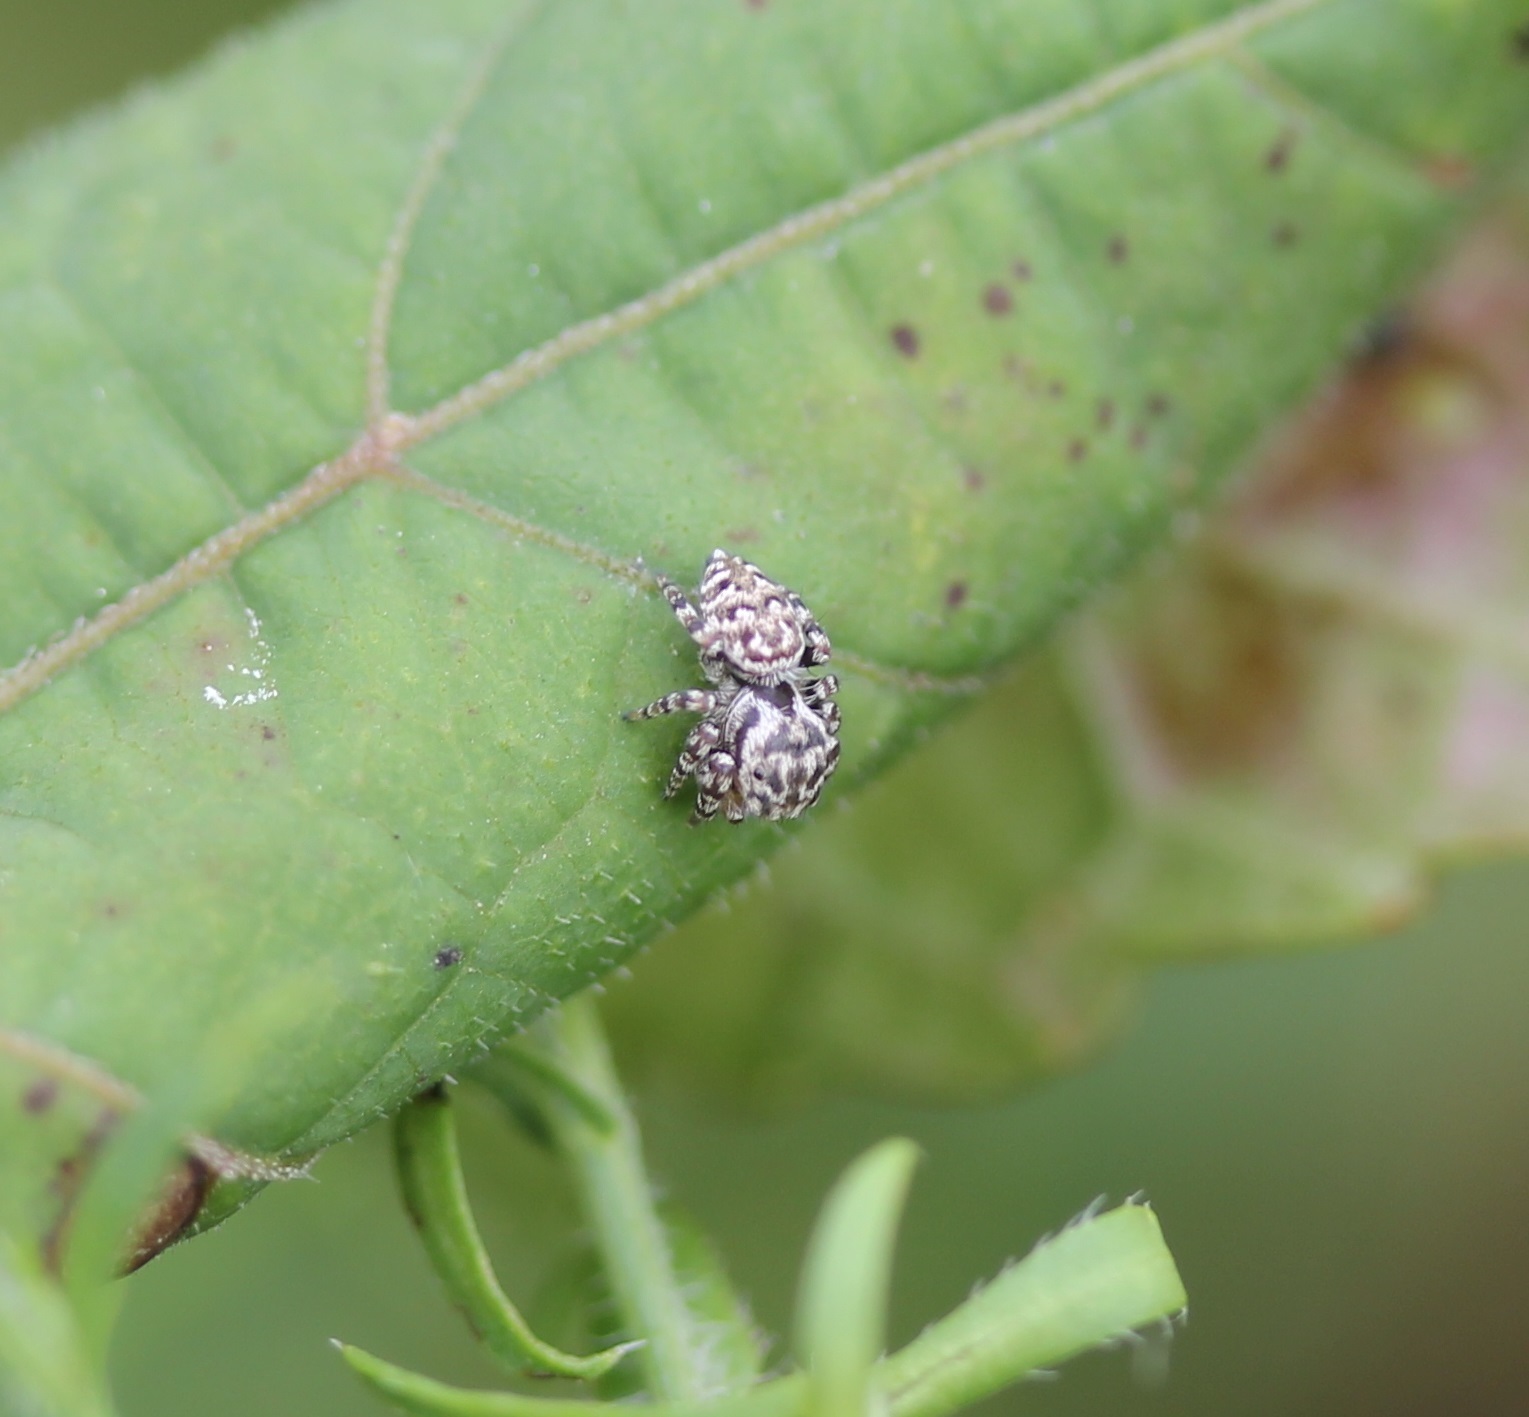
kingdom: Animalia
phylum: Arthropoda
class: Arachnida
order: Araneae
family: Salticidae
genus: Pelegrina
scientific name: Pelegrina galathea
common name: Jumping spiders
